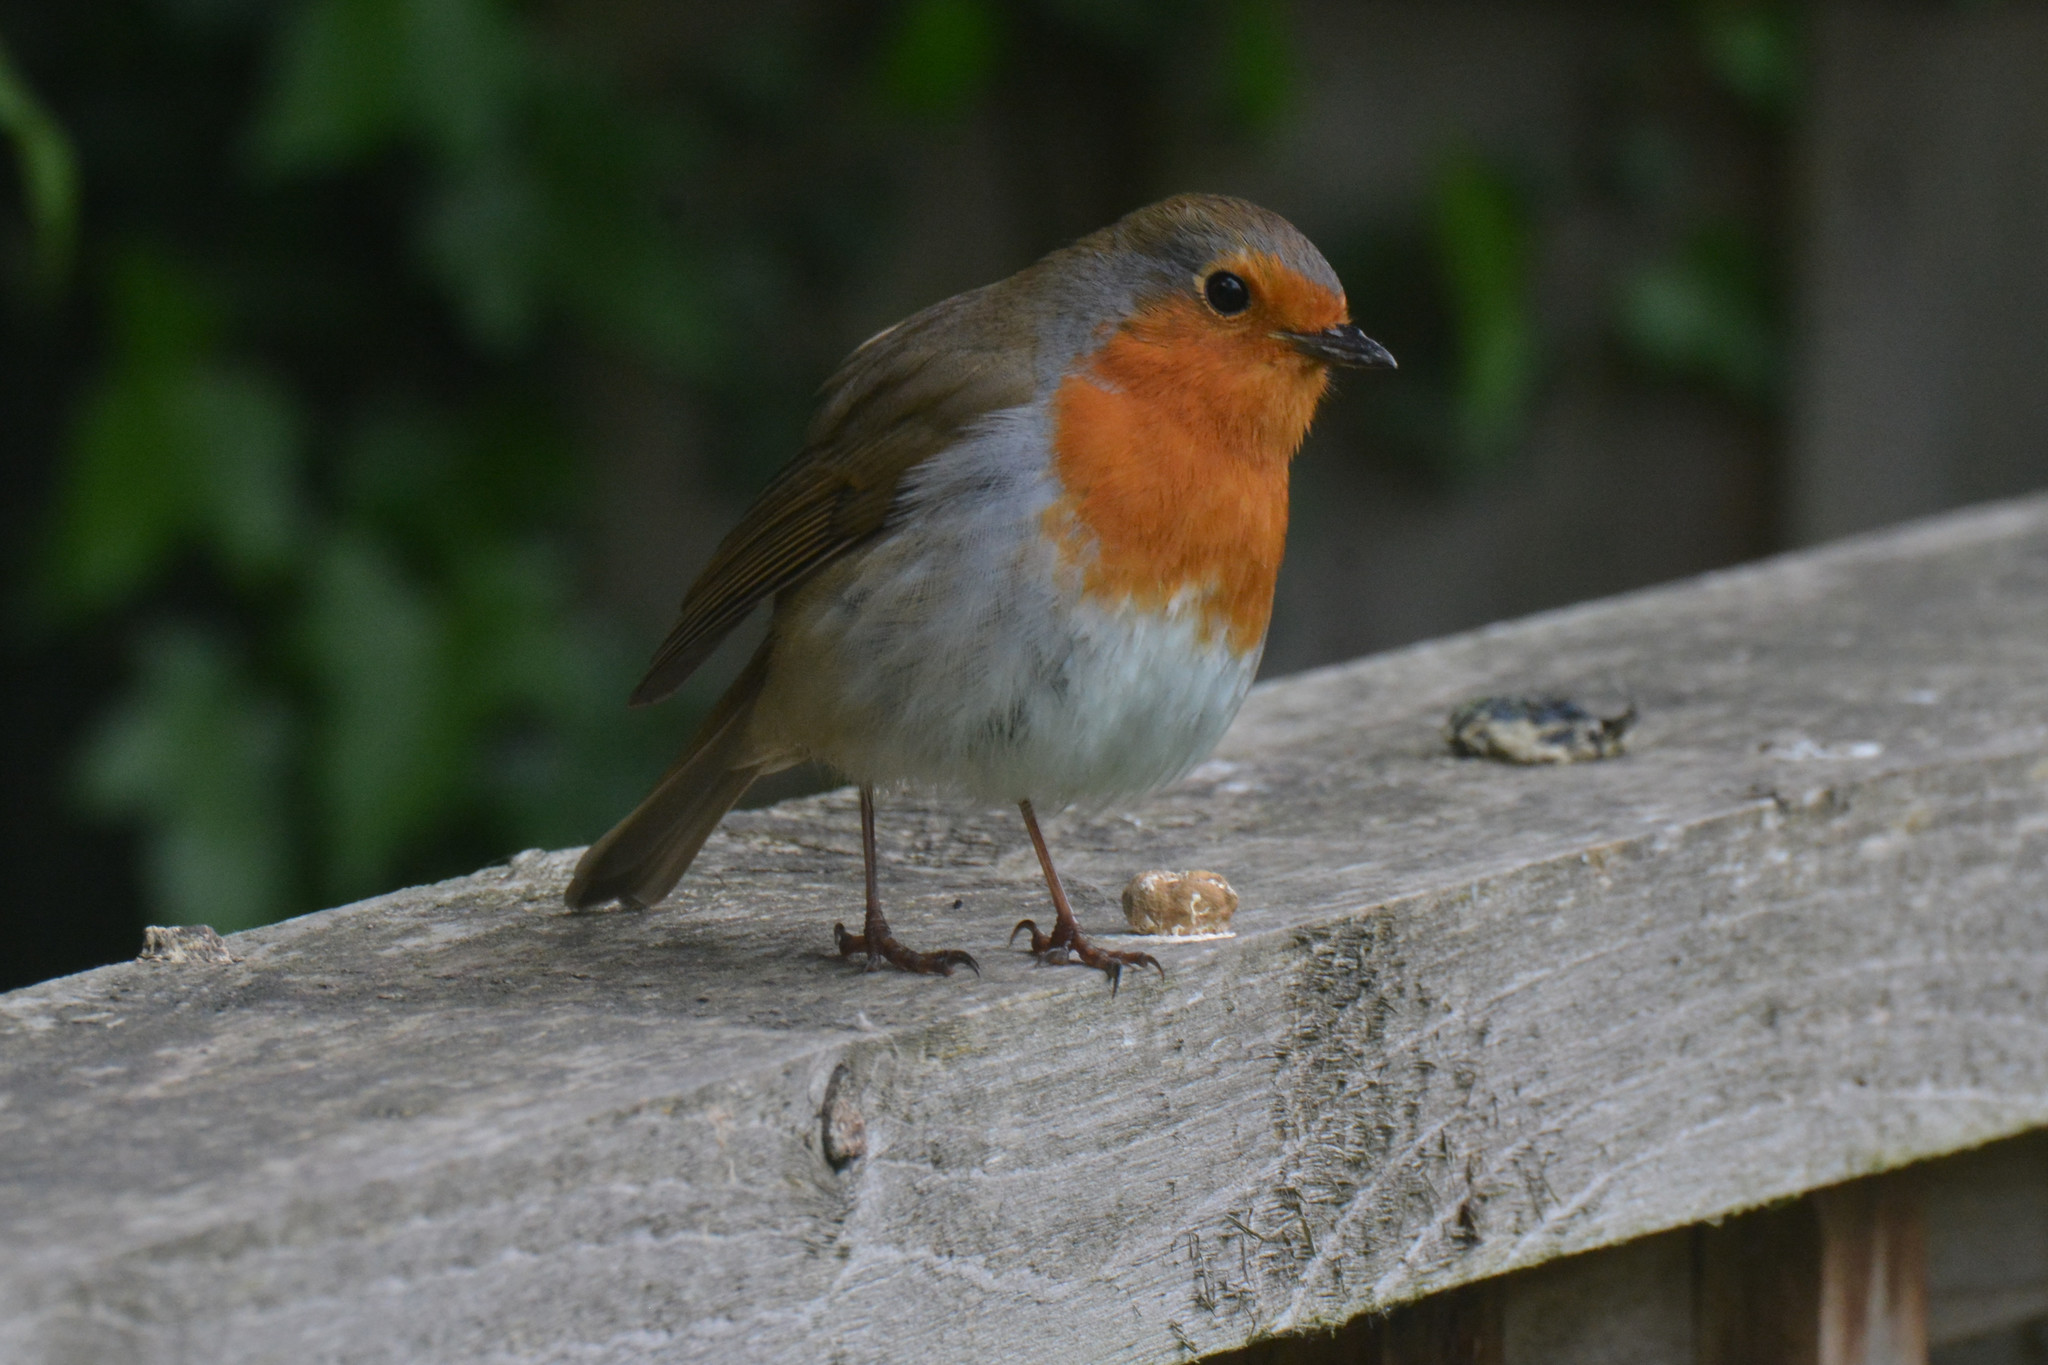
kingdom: Animalia
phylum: Chordata
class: Aves
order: Passeriformes
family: Muscicapidae
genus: Erithacus
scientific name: Erithacus rubecula
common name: European robin
